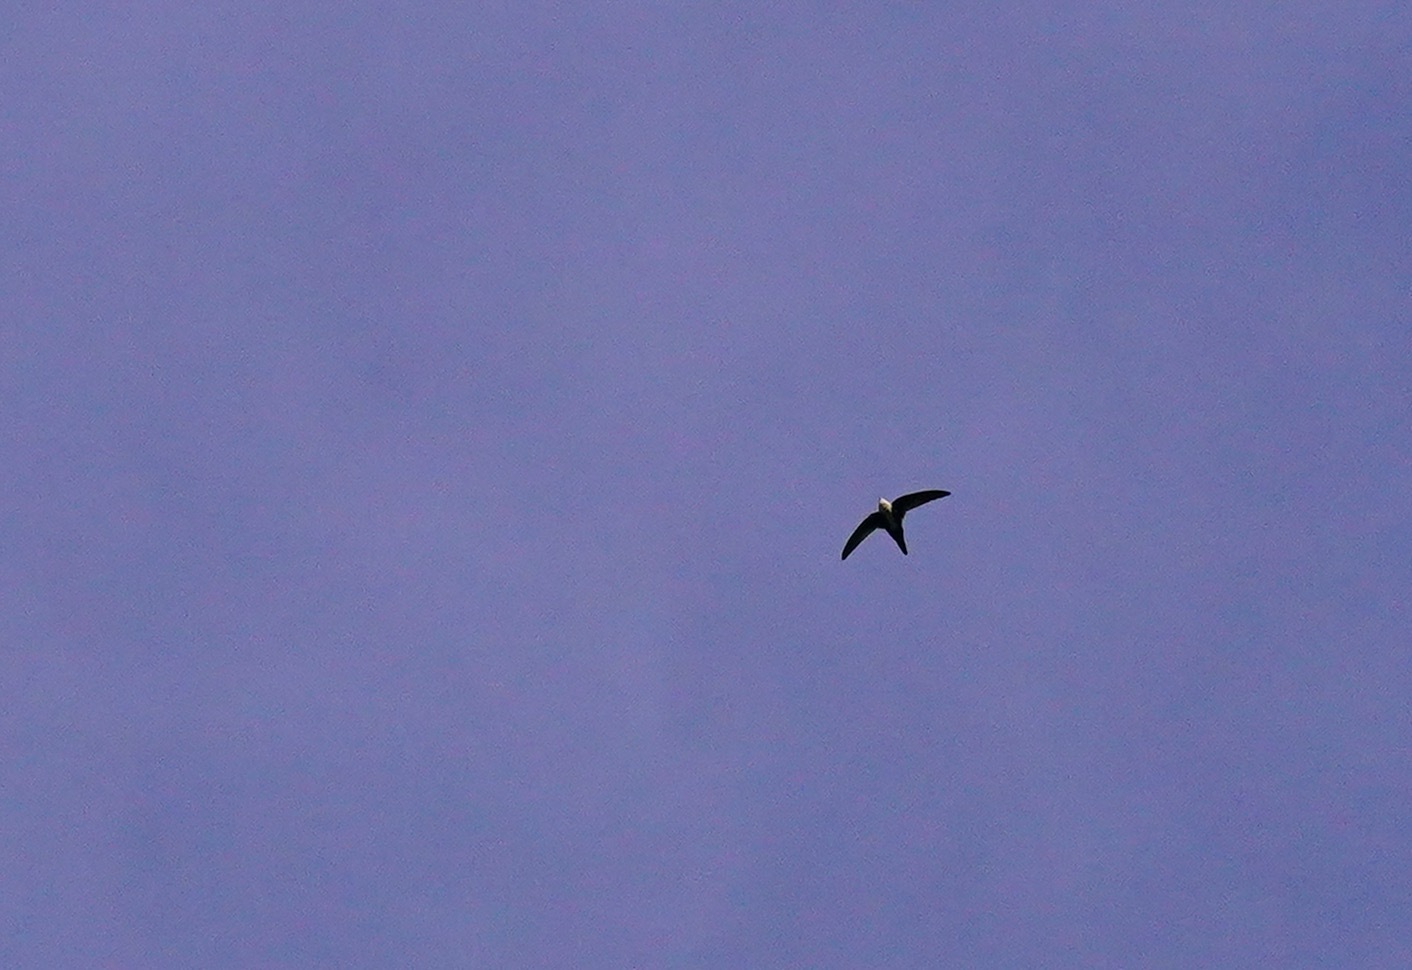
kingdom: Animalia
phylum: Chordata
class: Aves
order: Apodiformes
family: Apodidae
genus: Aeronautes
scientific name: Aeronautes saxatalis
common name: White-throated swift
